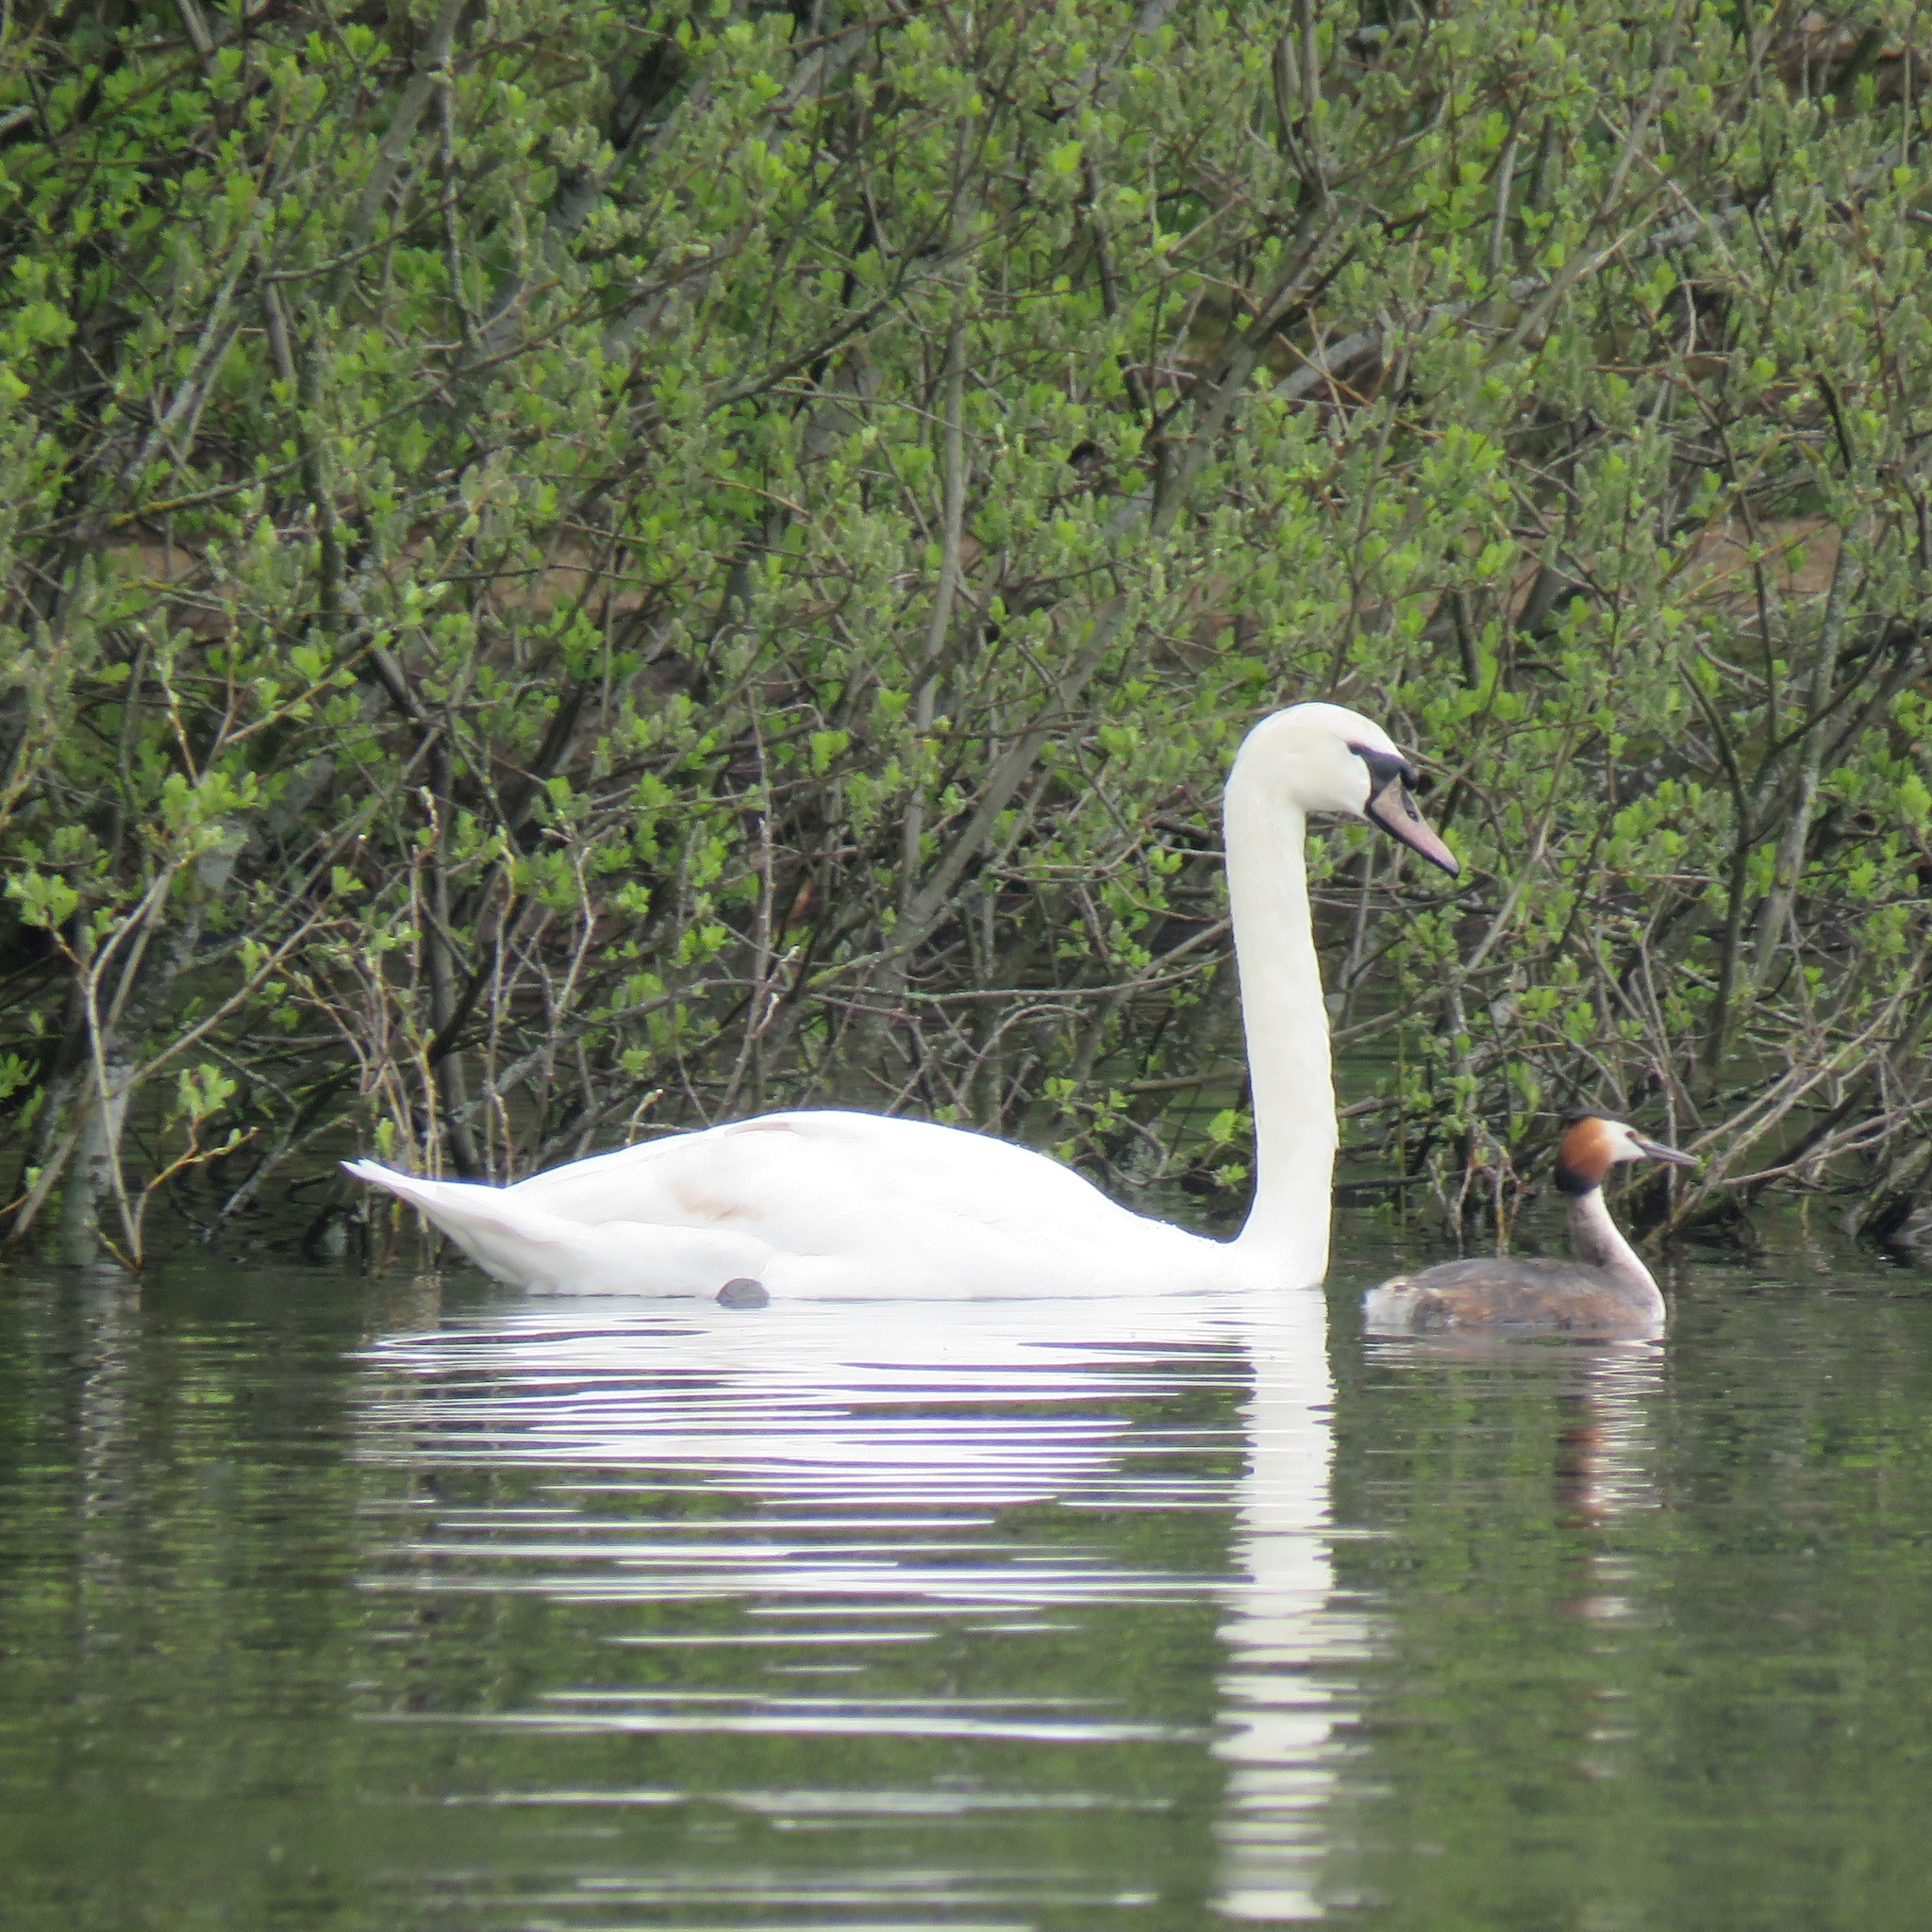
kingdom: Animalia
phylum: Chordata
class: Aves
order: Anseriformes
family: Anatidae
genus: Cygnus
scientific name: Cygnus olor
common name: Mute swan
